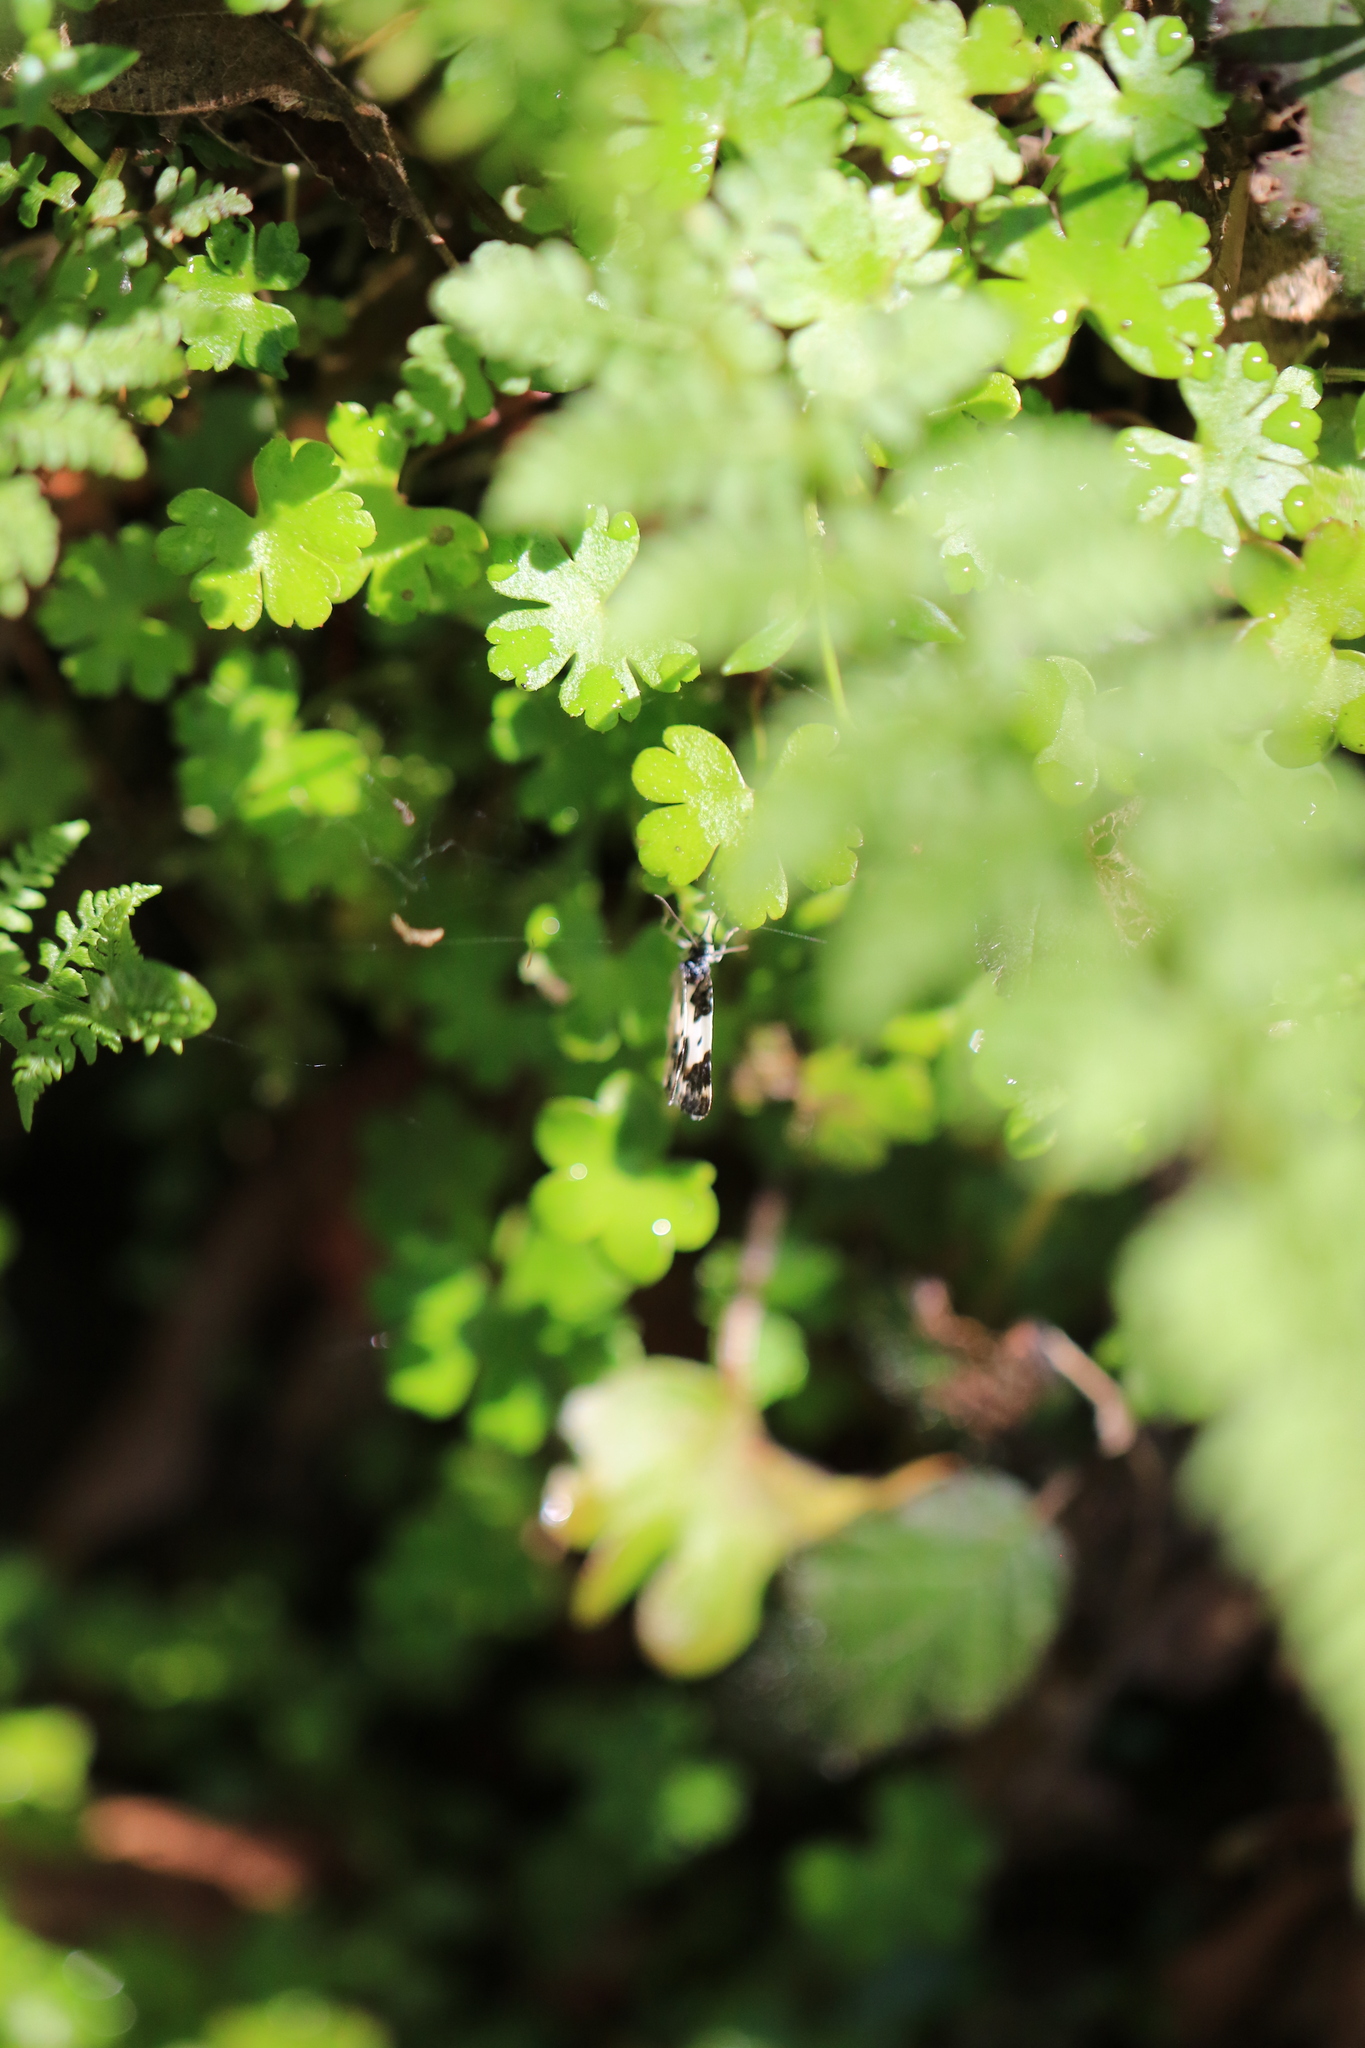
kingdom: Animalia
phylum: Arthropoda
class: Insecta
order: Lepidoptera
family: Geometridae
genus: Mesoleuca
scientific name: Mesoleuca gratulata
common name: Half-white carpet moth
